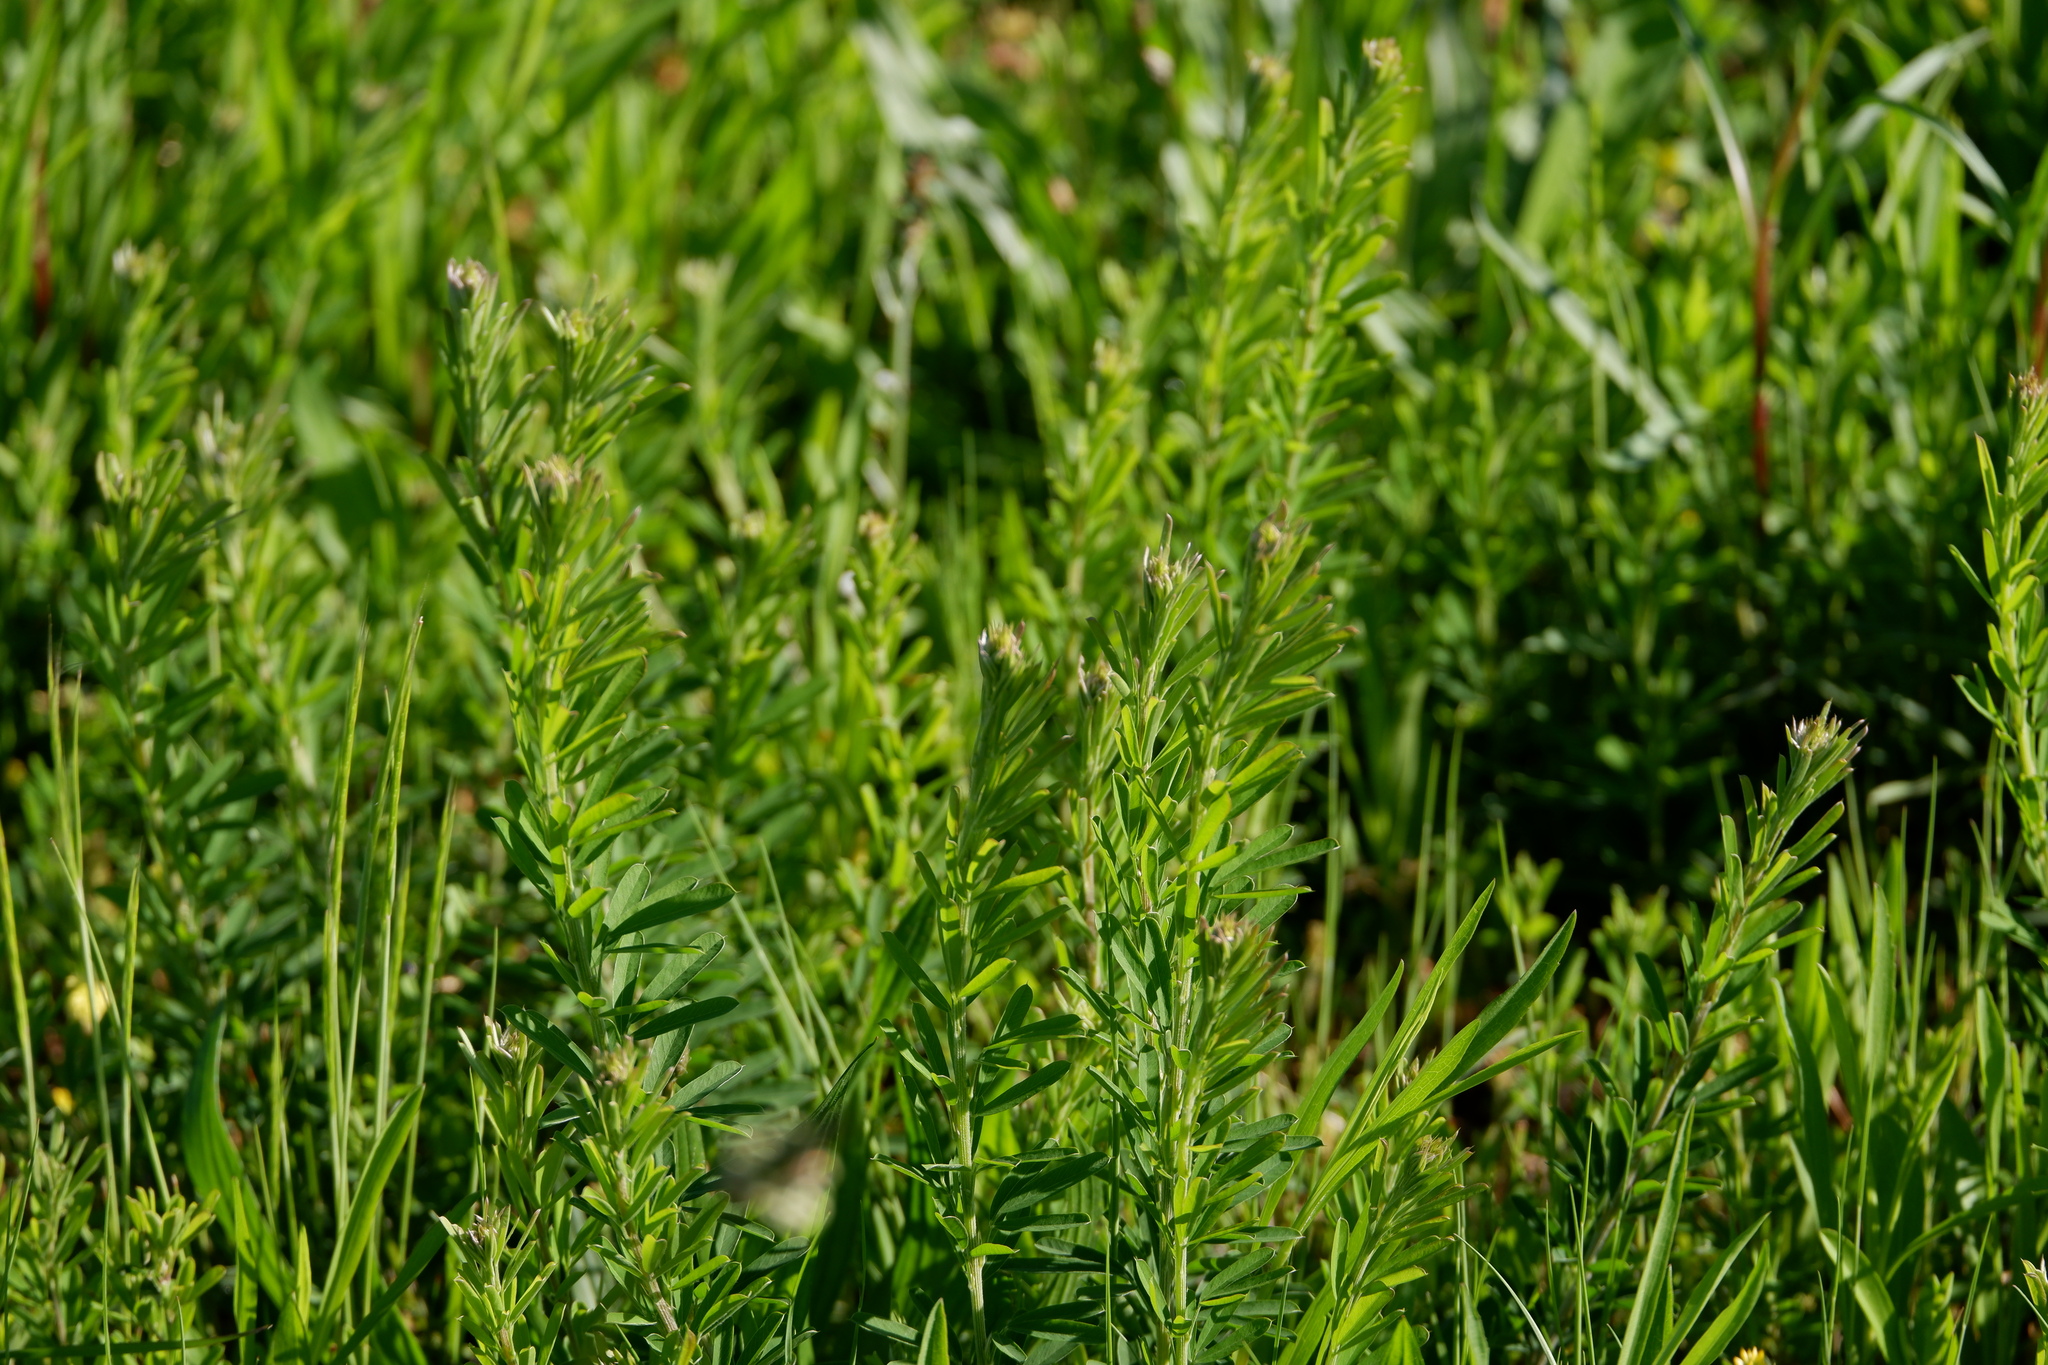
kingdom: Plantae
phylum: Tracheophyta
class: Magnoliopsida
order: Fabales
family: Fabaceae
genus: Lespedeza
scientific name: Lespedeza cuneata
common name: Chinese bush-clover
